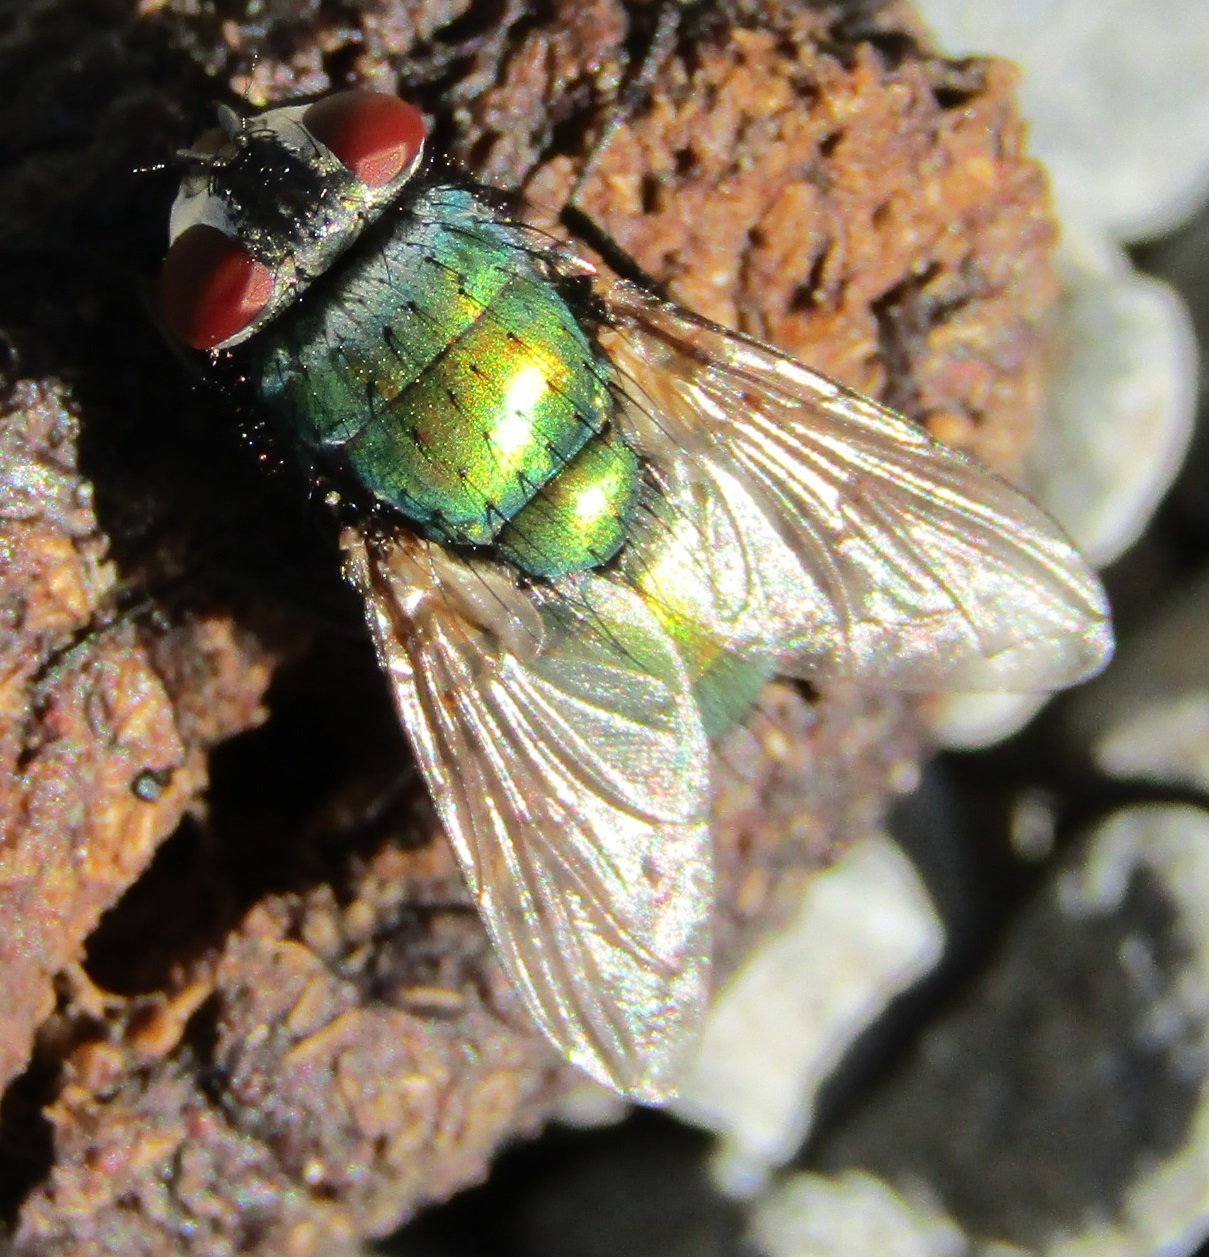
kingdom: Animalia
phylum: Arthropoda
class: Insecta
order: Diptera
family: Calliphoridae
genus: Lucilia
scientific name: Lucilia sericata
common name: Blow fly
